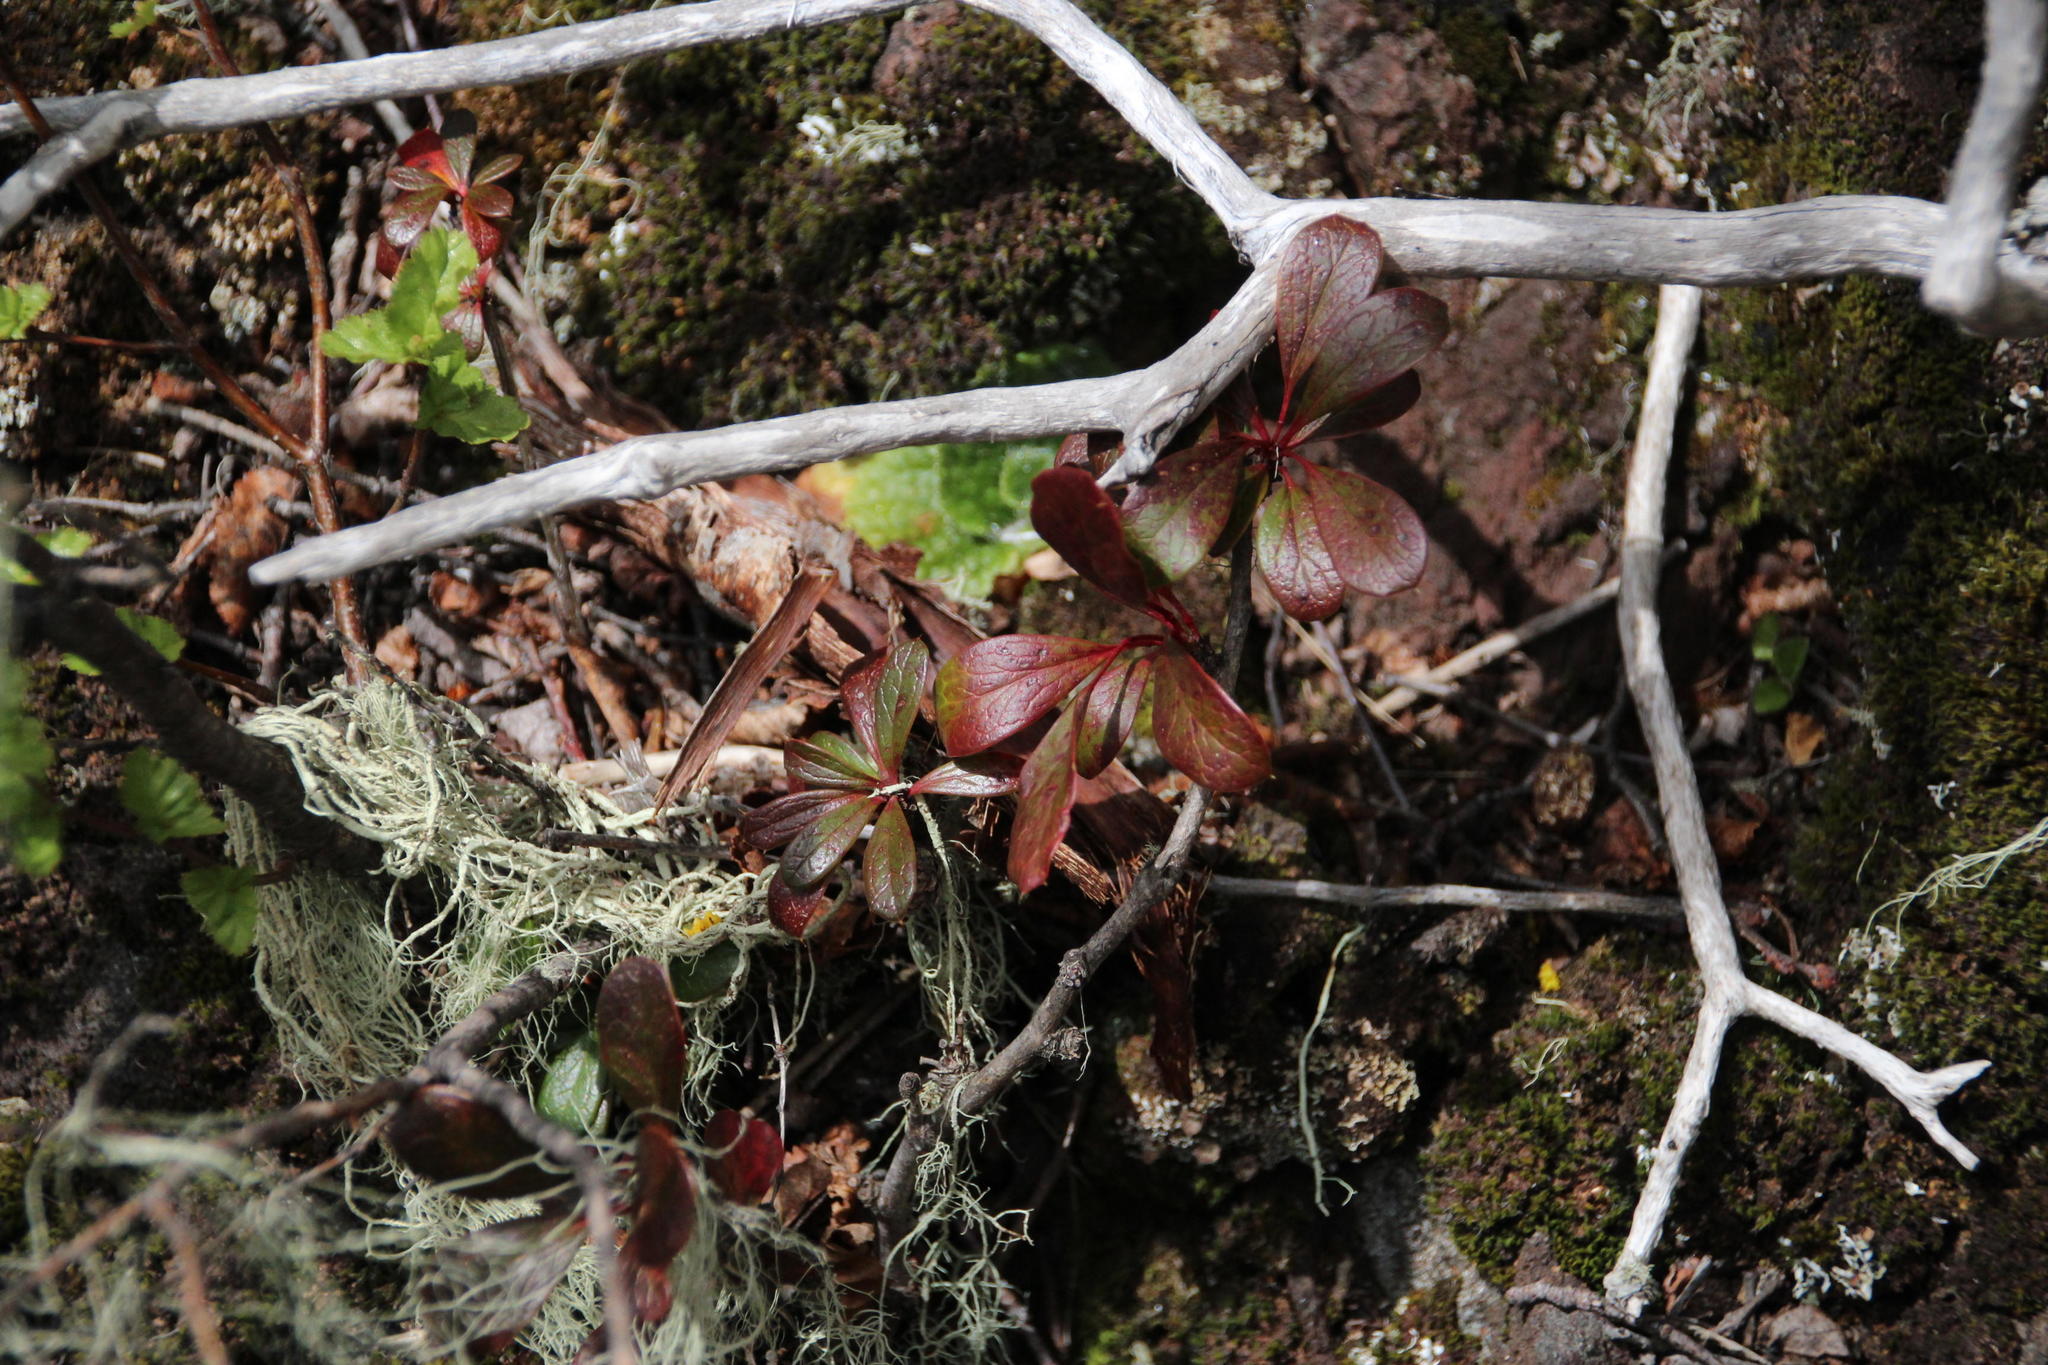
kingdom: Plantae
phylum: Tracheophyta
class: Magnoliopsida
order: Ranunculales
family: Berberidaceae
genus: Berberis
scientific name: Berberis microphylla
